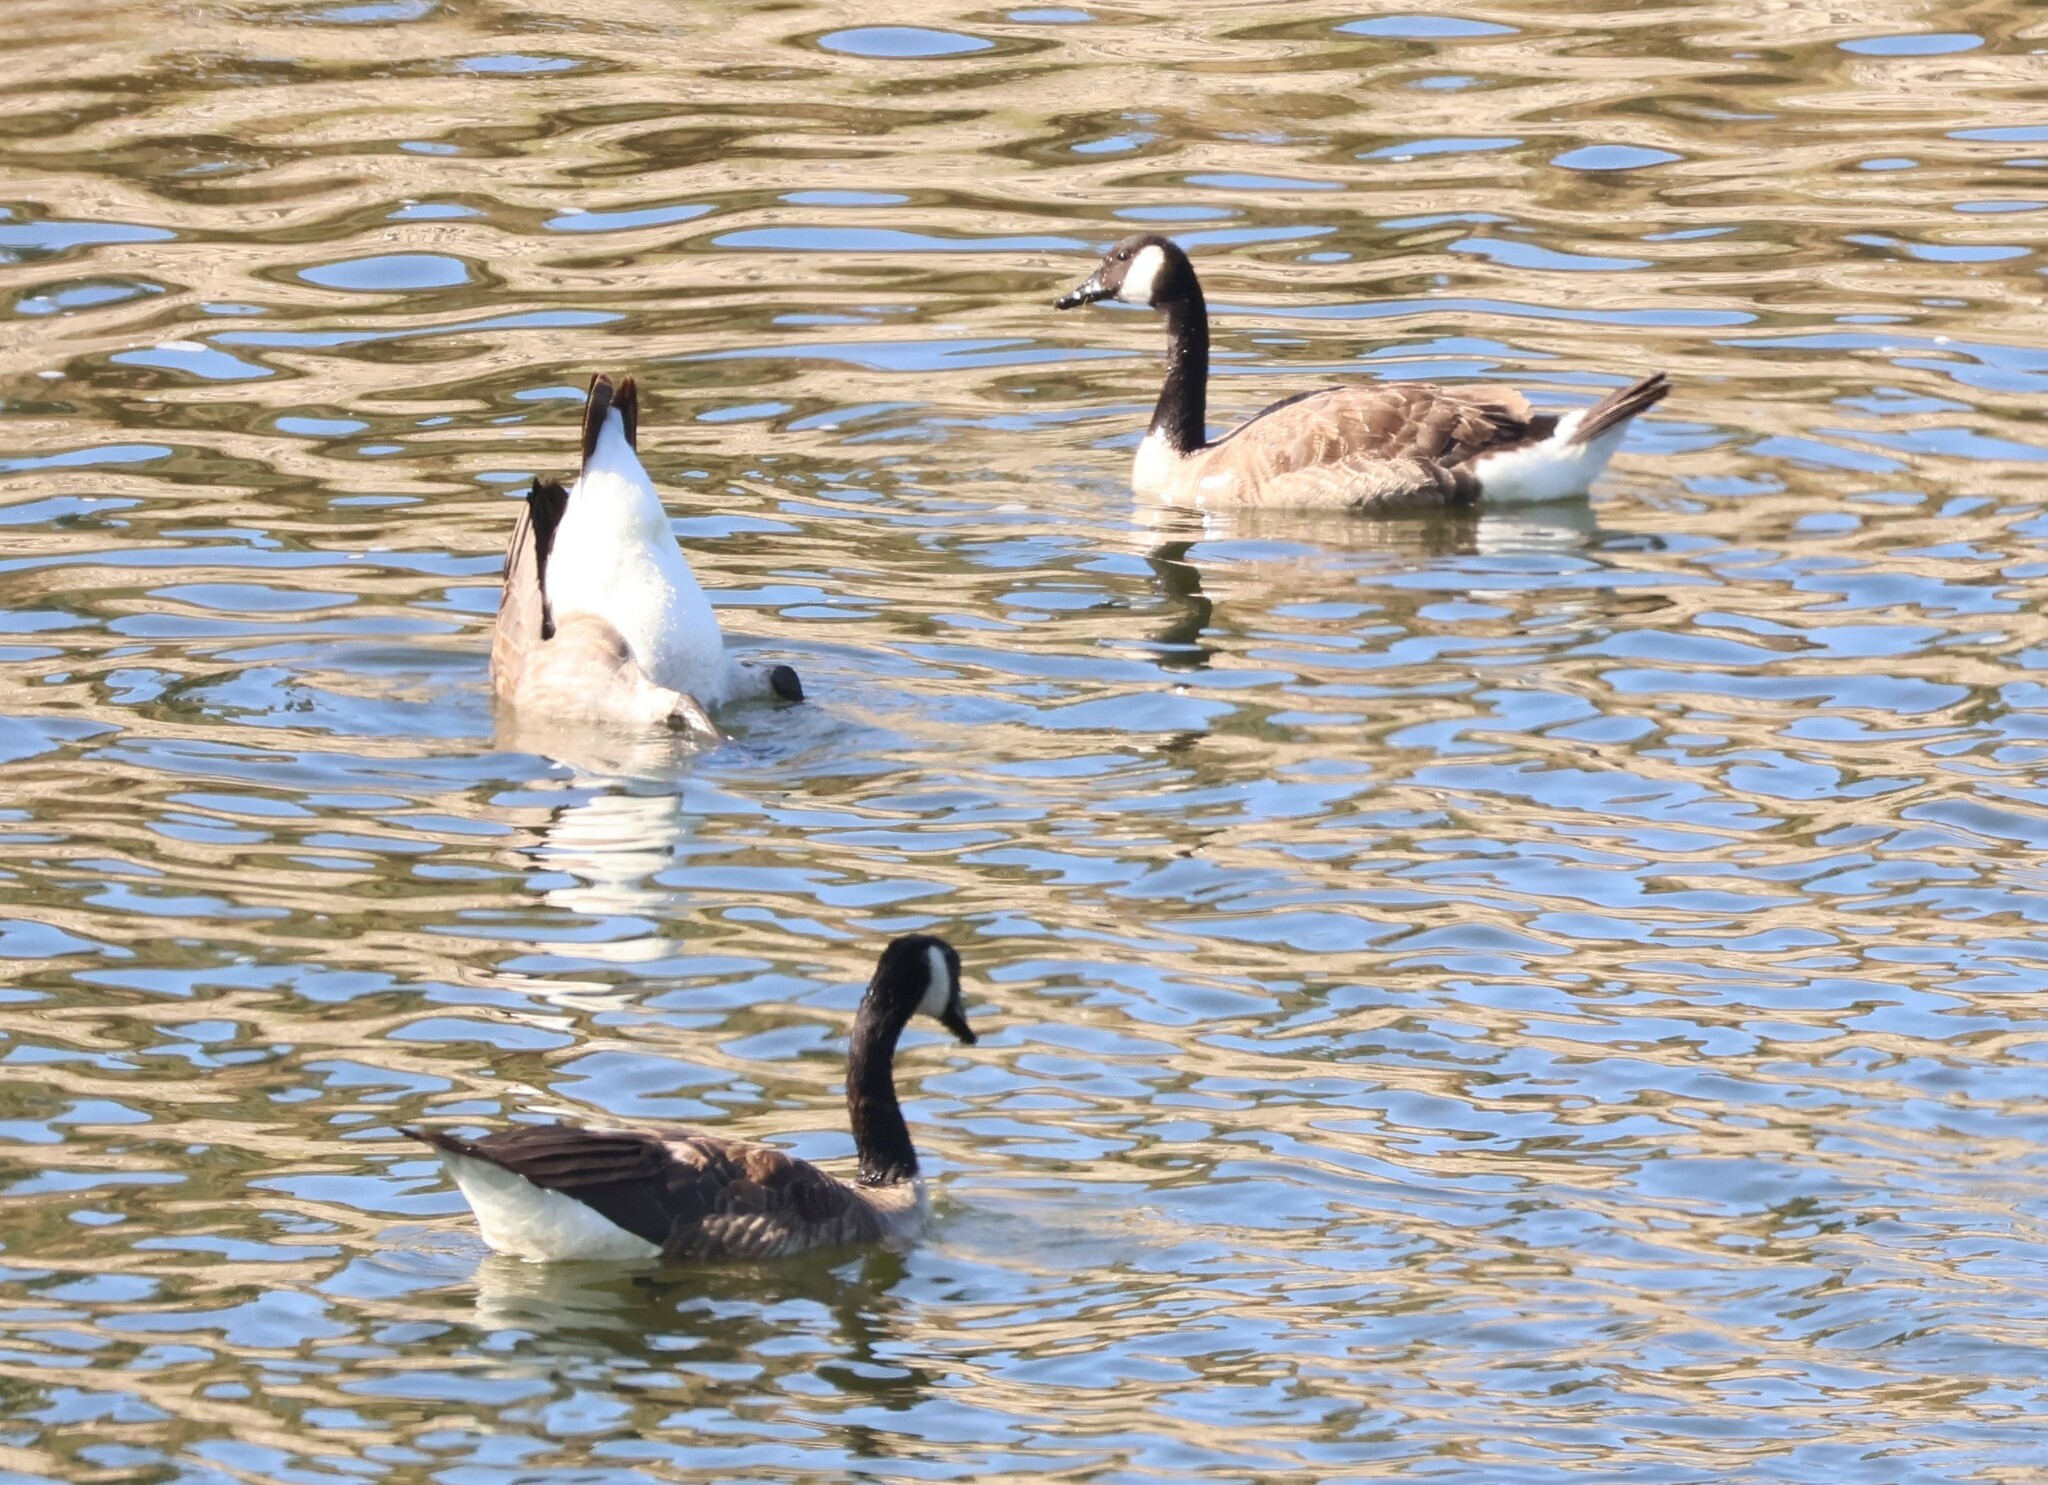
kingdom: Animalia
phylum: Chordata
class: Aves
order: Anseriformes
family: Anatidae
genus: Branta
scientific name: Branta canadensis
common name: Canada goose
